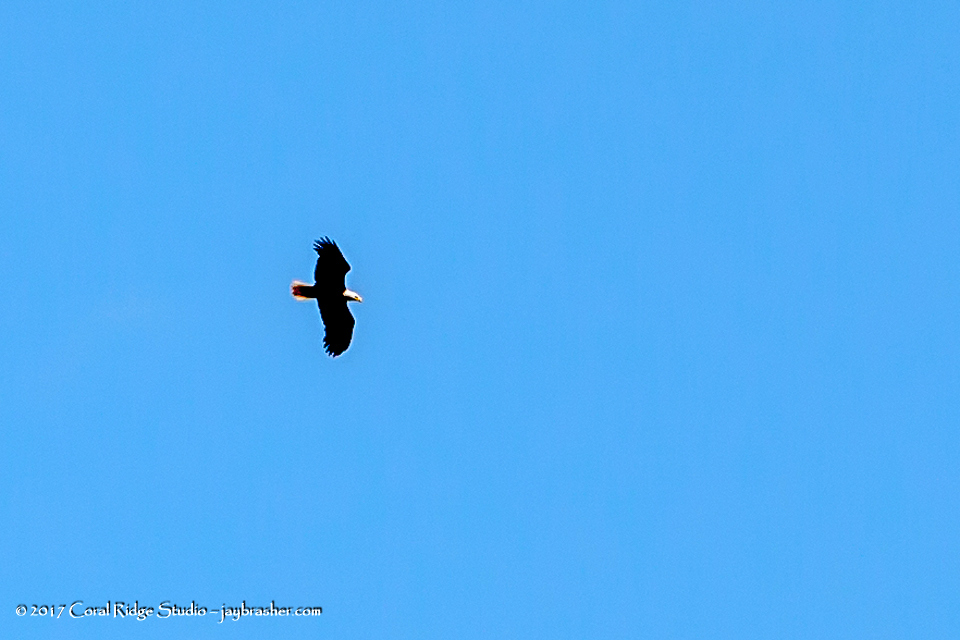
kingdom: Animalia
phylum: Chordata
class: Aves
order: Accipitriformes
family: Accipitridae
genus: Haliaeetus
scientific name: Haliaeetus leucocephalus
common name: Bald eagle
